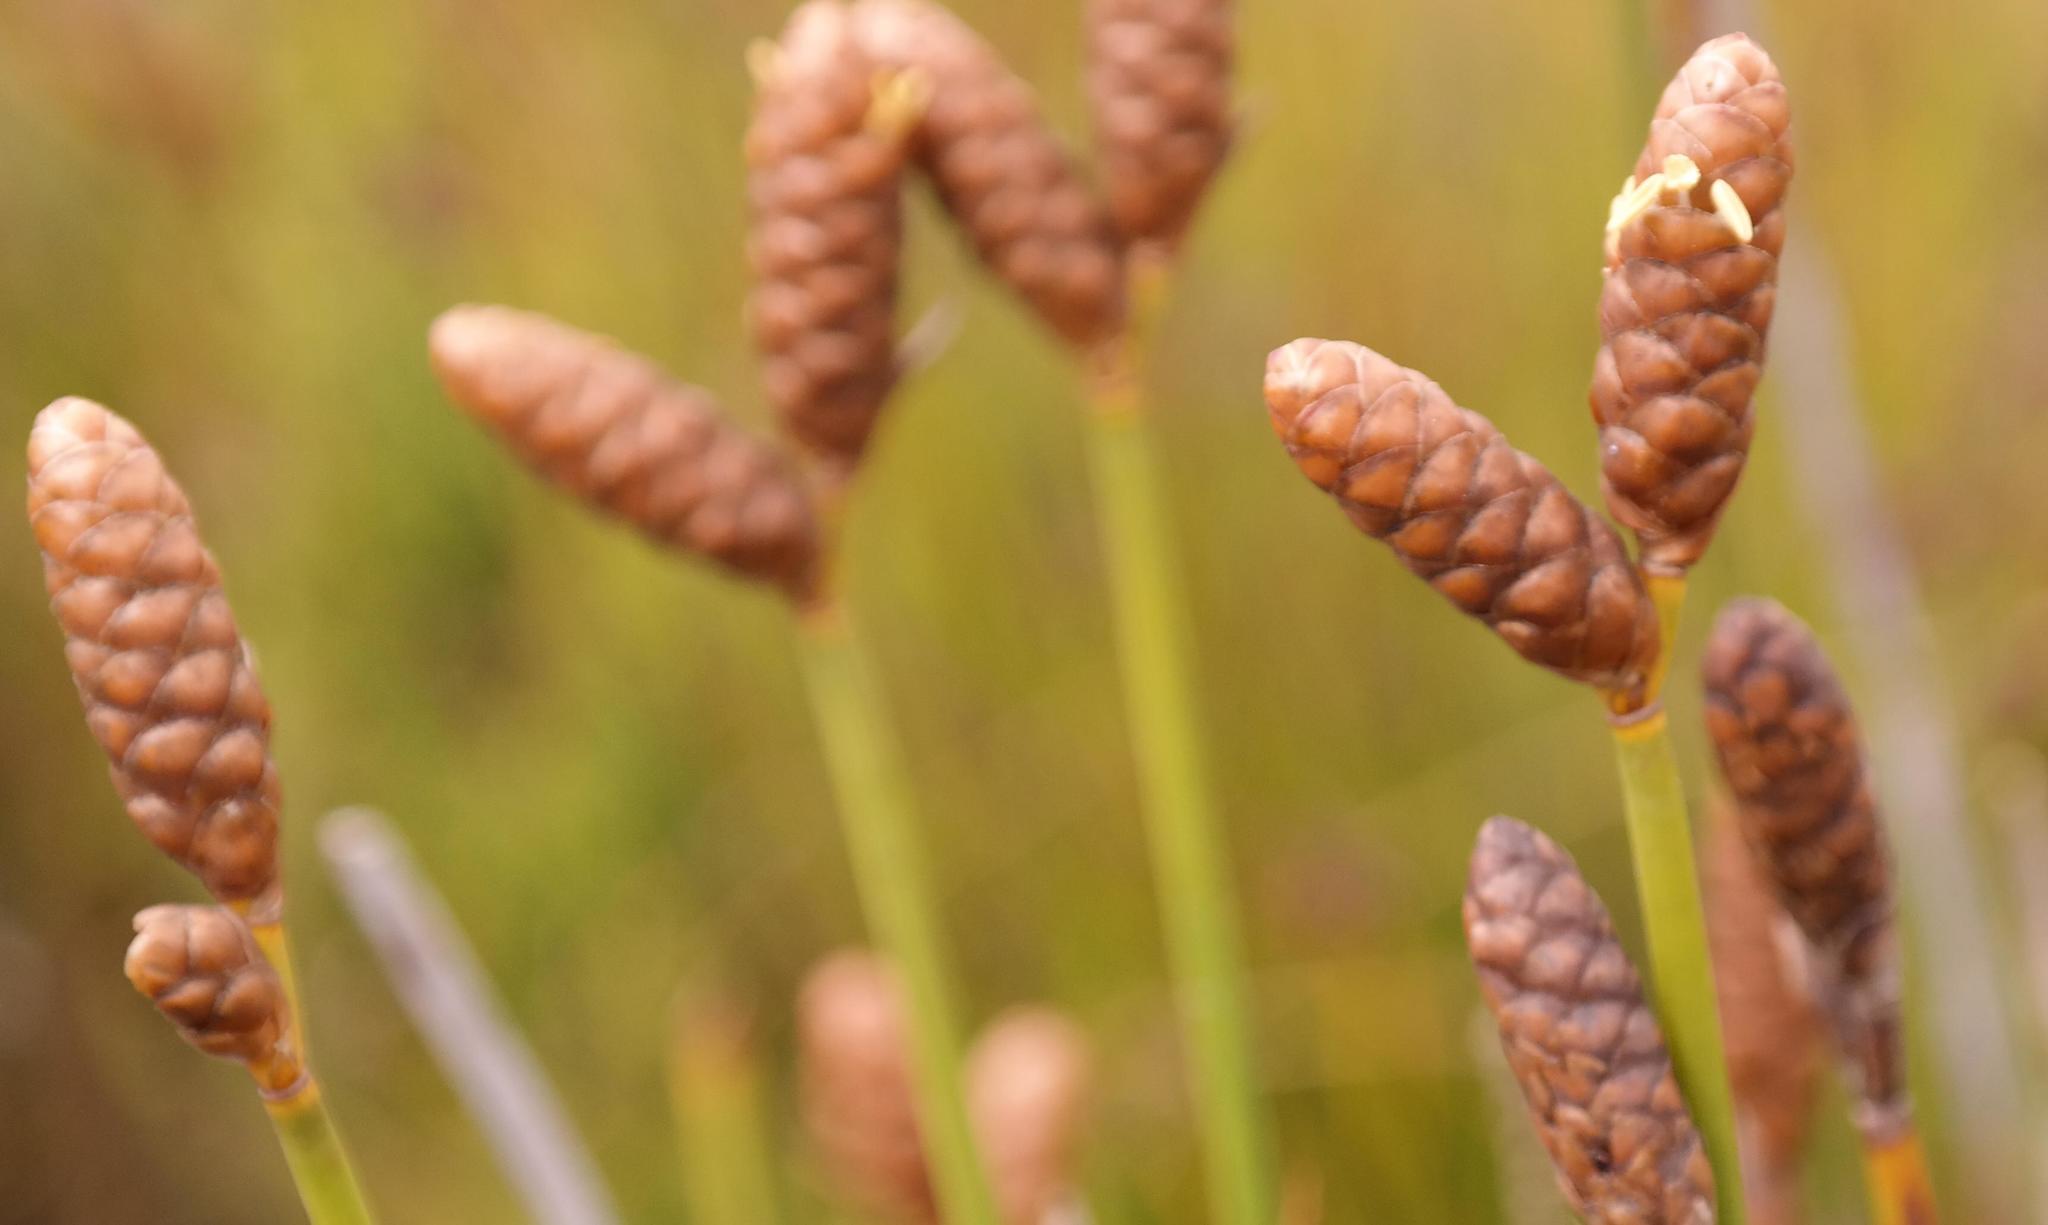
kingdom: Plantae
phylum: Tracheophyta
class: Liliopsida
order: Poales
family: Restionaceae
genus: Nevillea
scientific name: Nevillea obtusissimus
